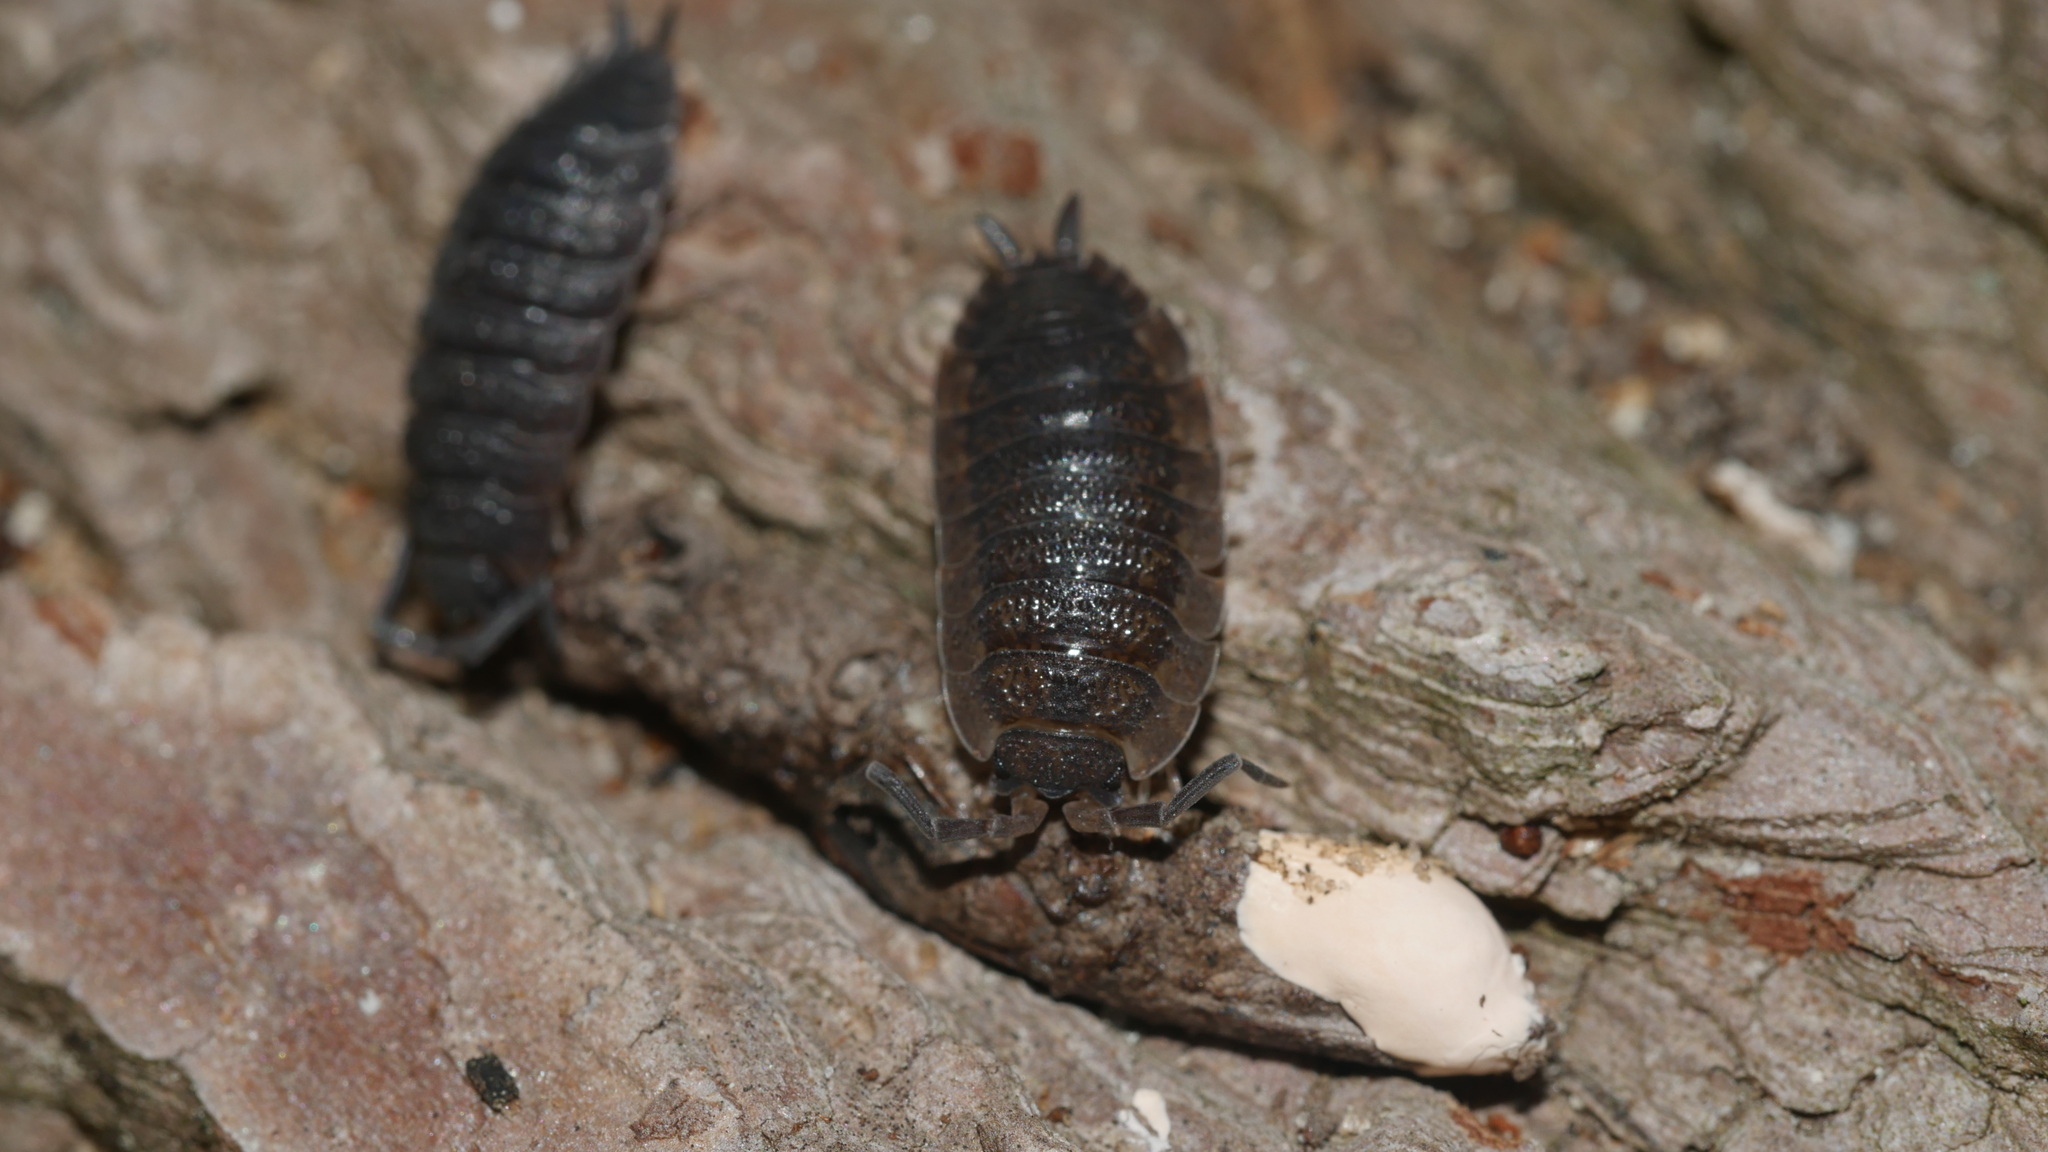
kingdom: Animalia
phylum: Arthropoda
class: Malacostraca
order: Isopoda
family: Porcellionidae
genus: Porcellio
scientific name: Porcellio scaber
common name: Common rough woodlouse
